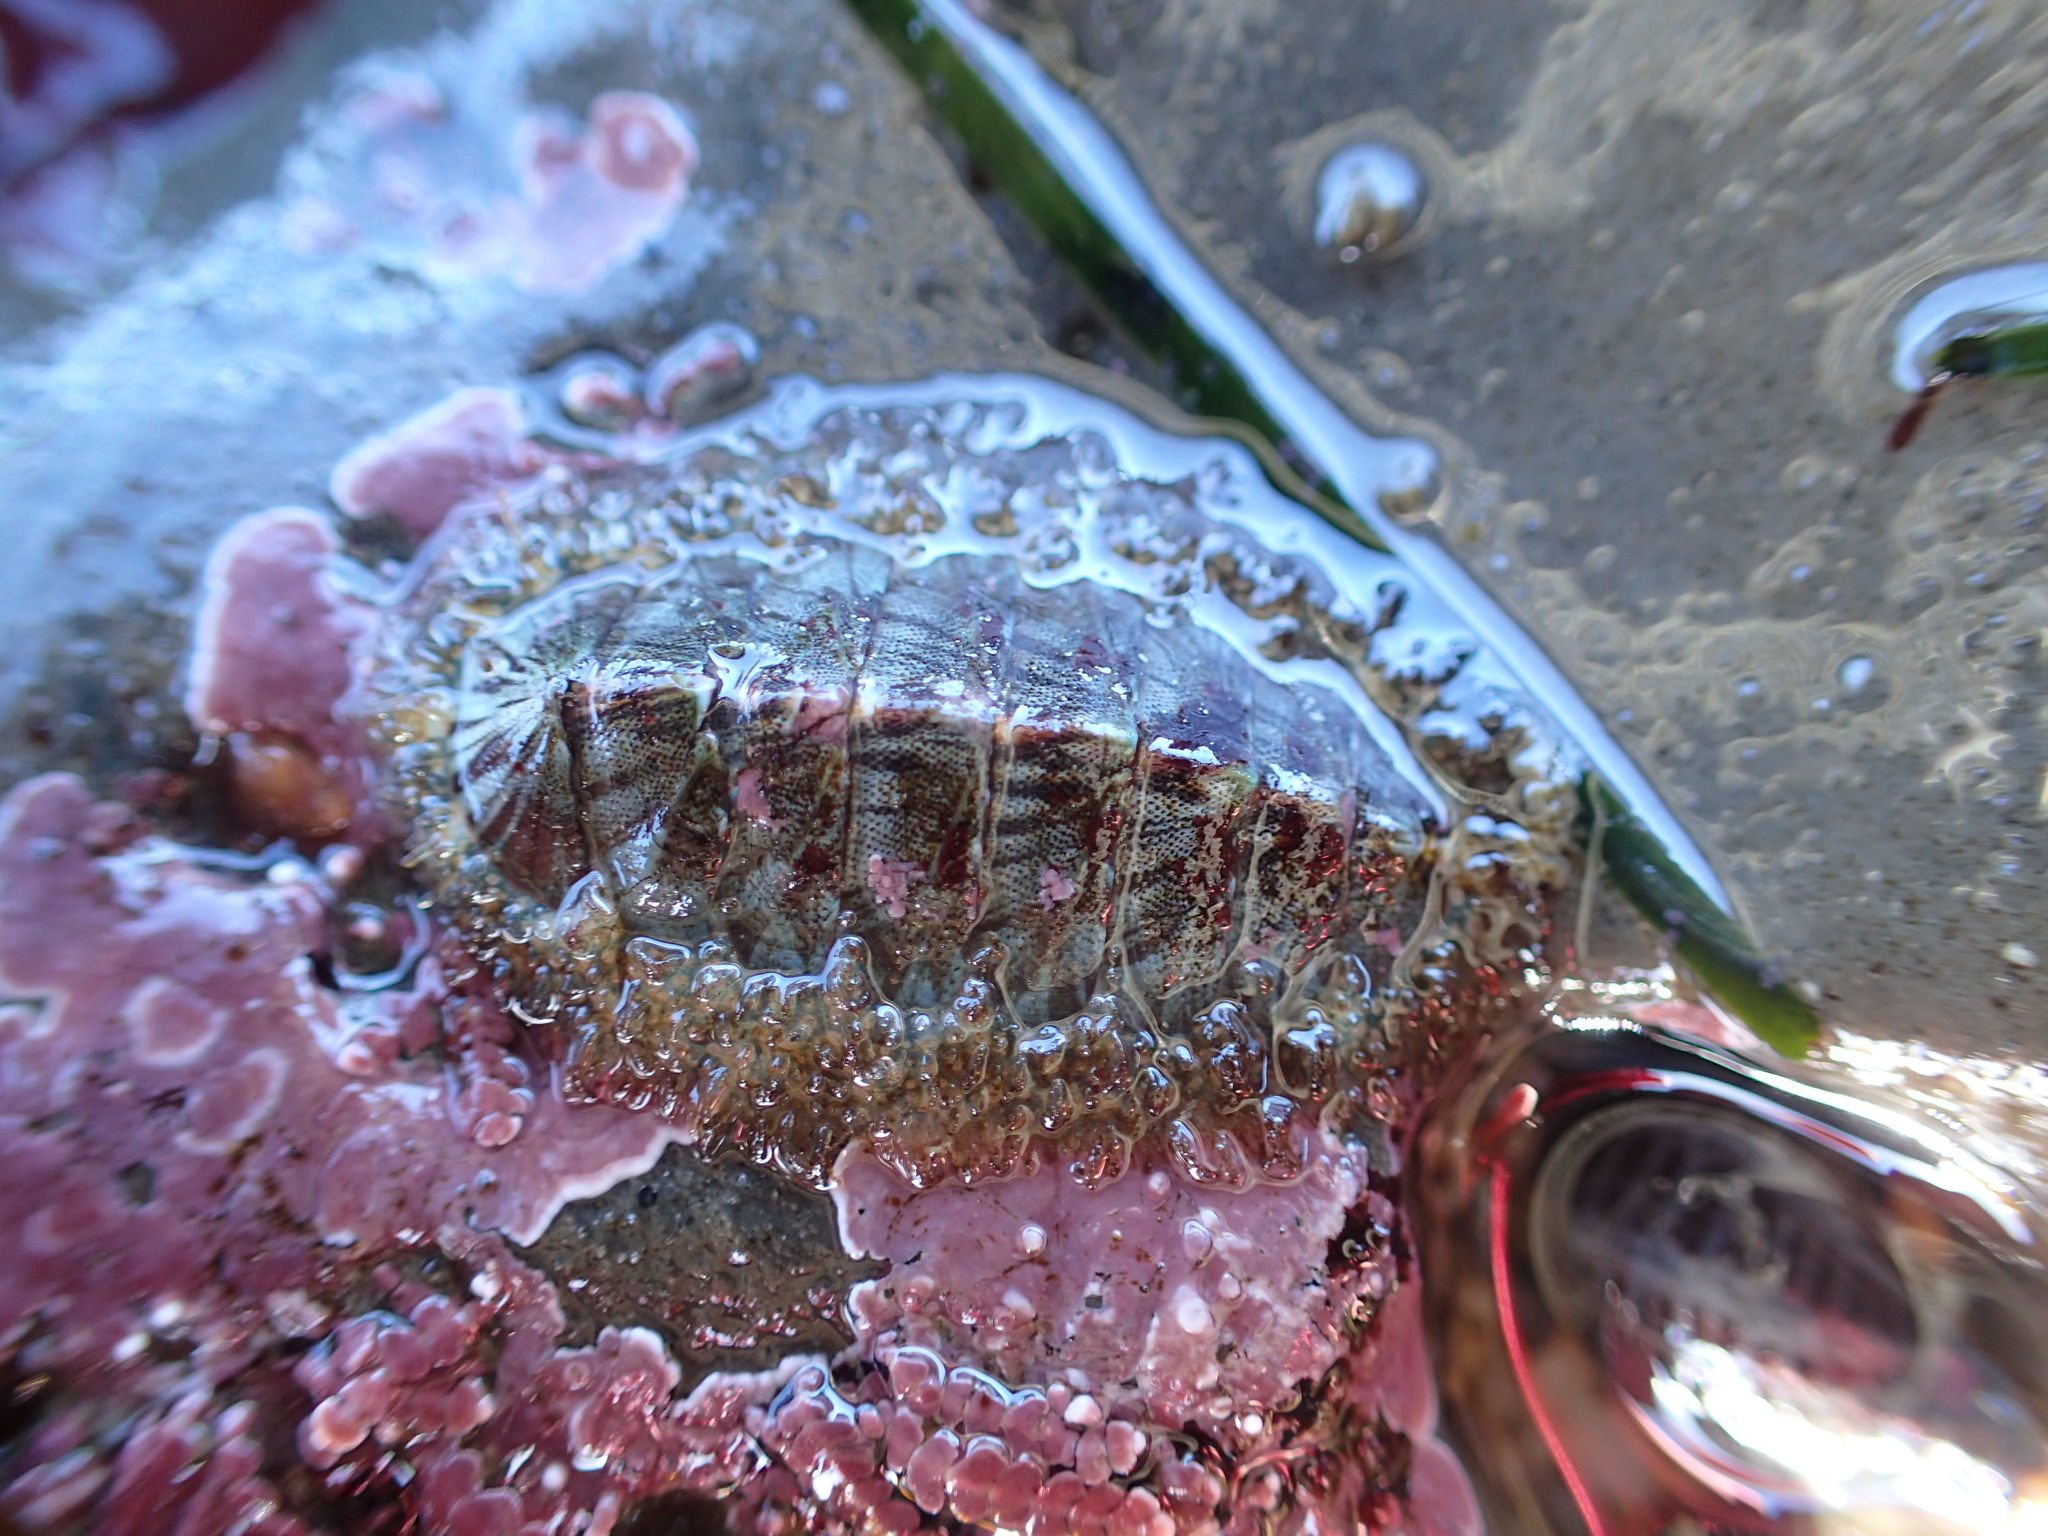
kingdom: Animalia
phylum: Mollusca
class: Polyplacophora
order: Chitonida
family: Mopaliidae
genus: Mopalia
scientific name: Mopalia lignosa
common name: Woody chiton
